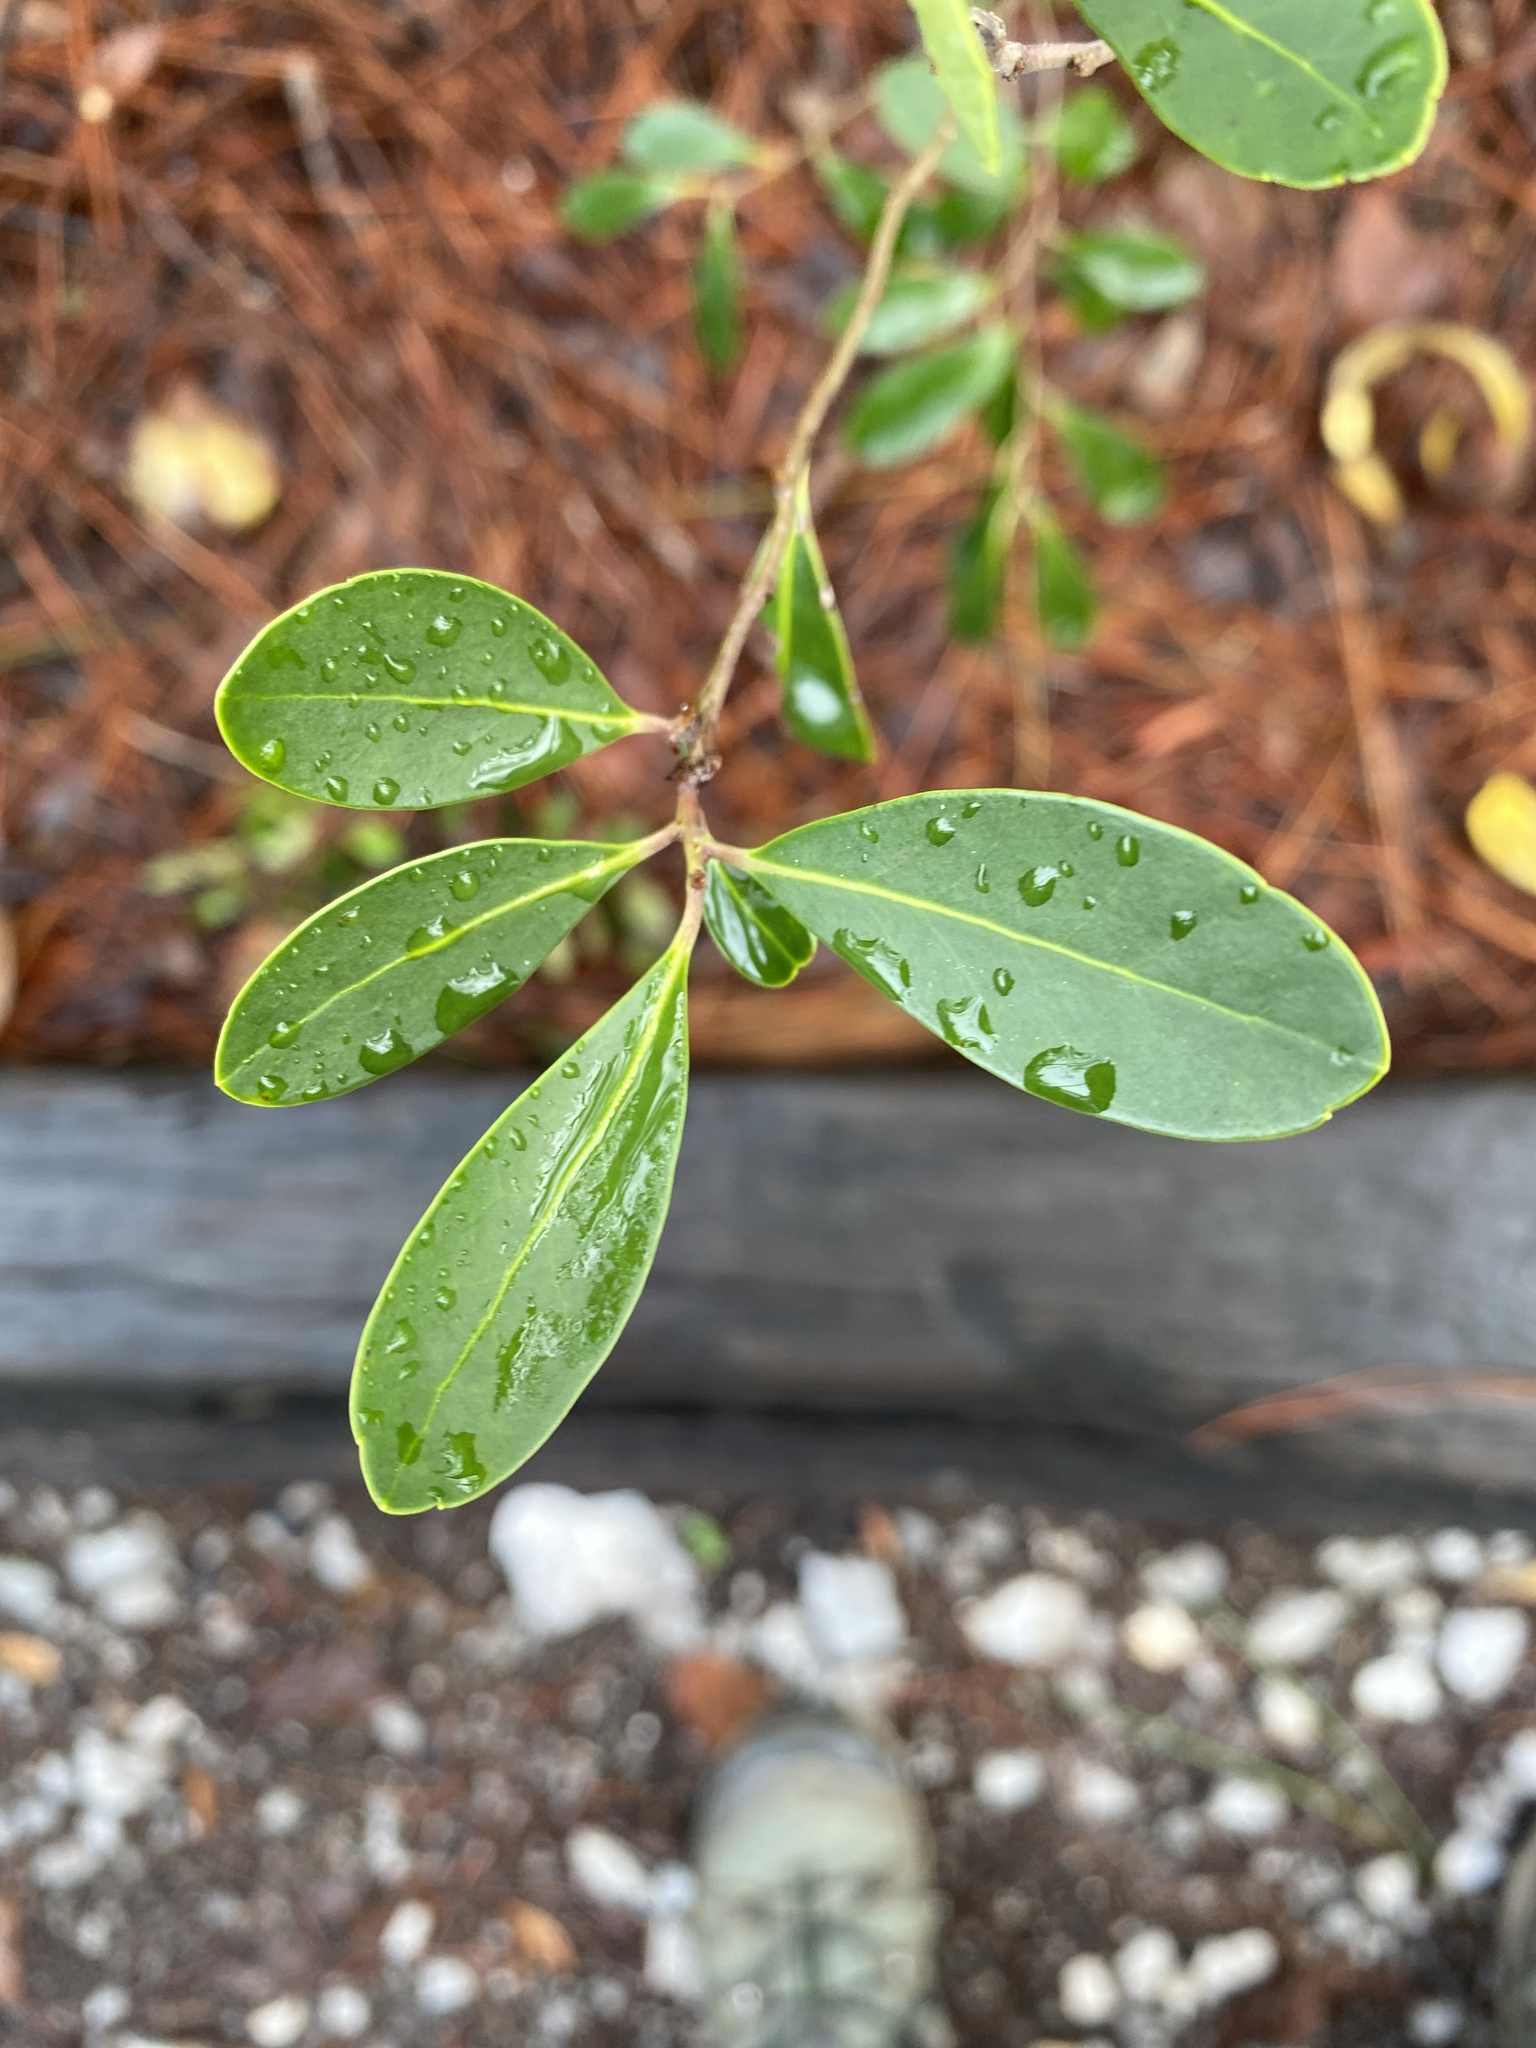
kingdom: Plantae
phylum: Tracheophyta
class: Magnoliopsida
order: Aquifoliales
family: Aquifoliaceae
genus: Ilex
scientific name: Ilex glabra
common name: Bitter gallberry
